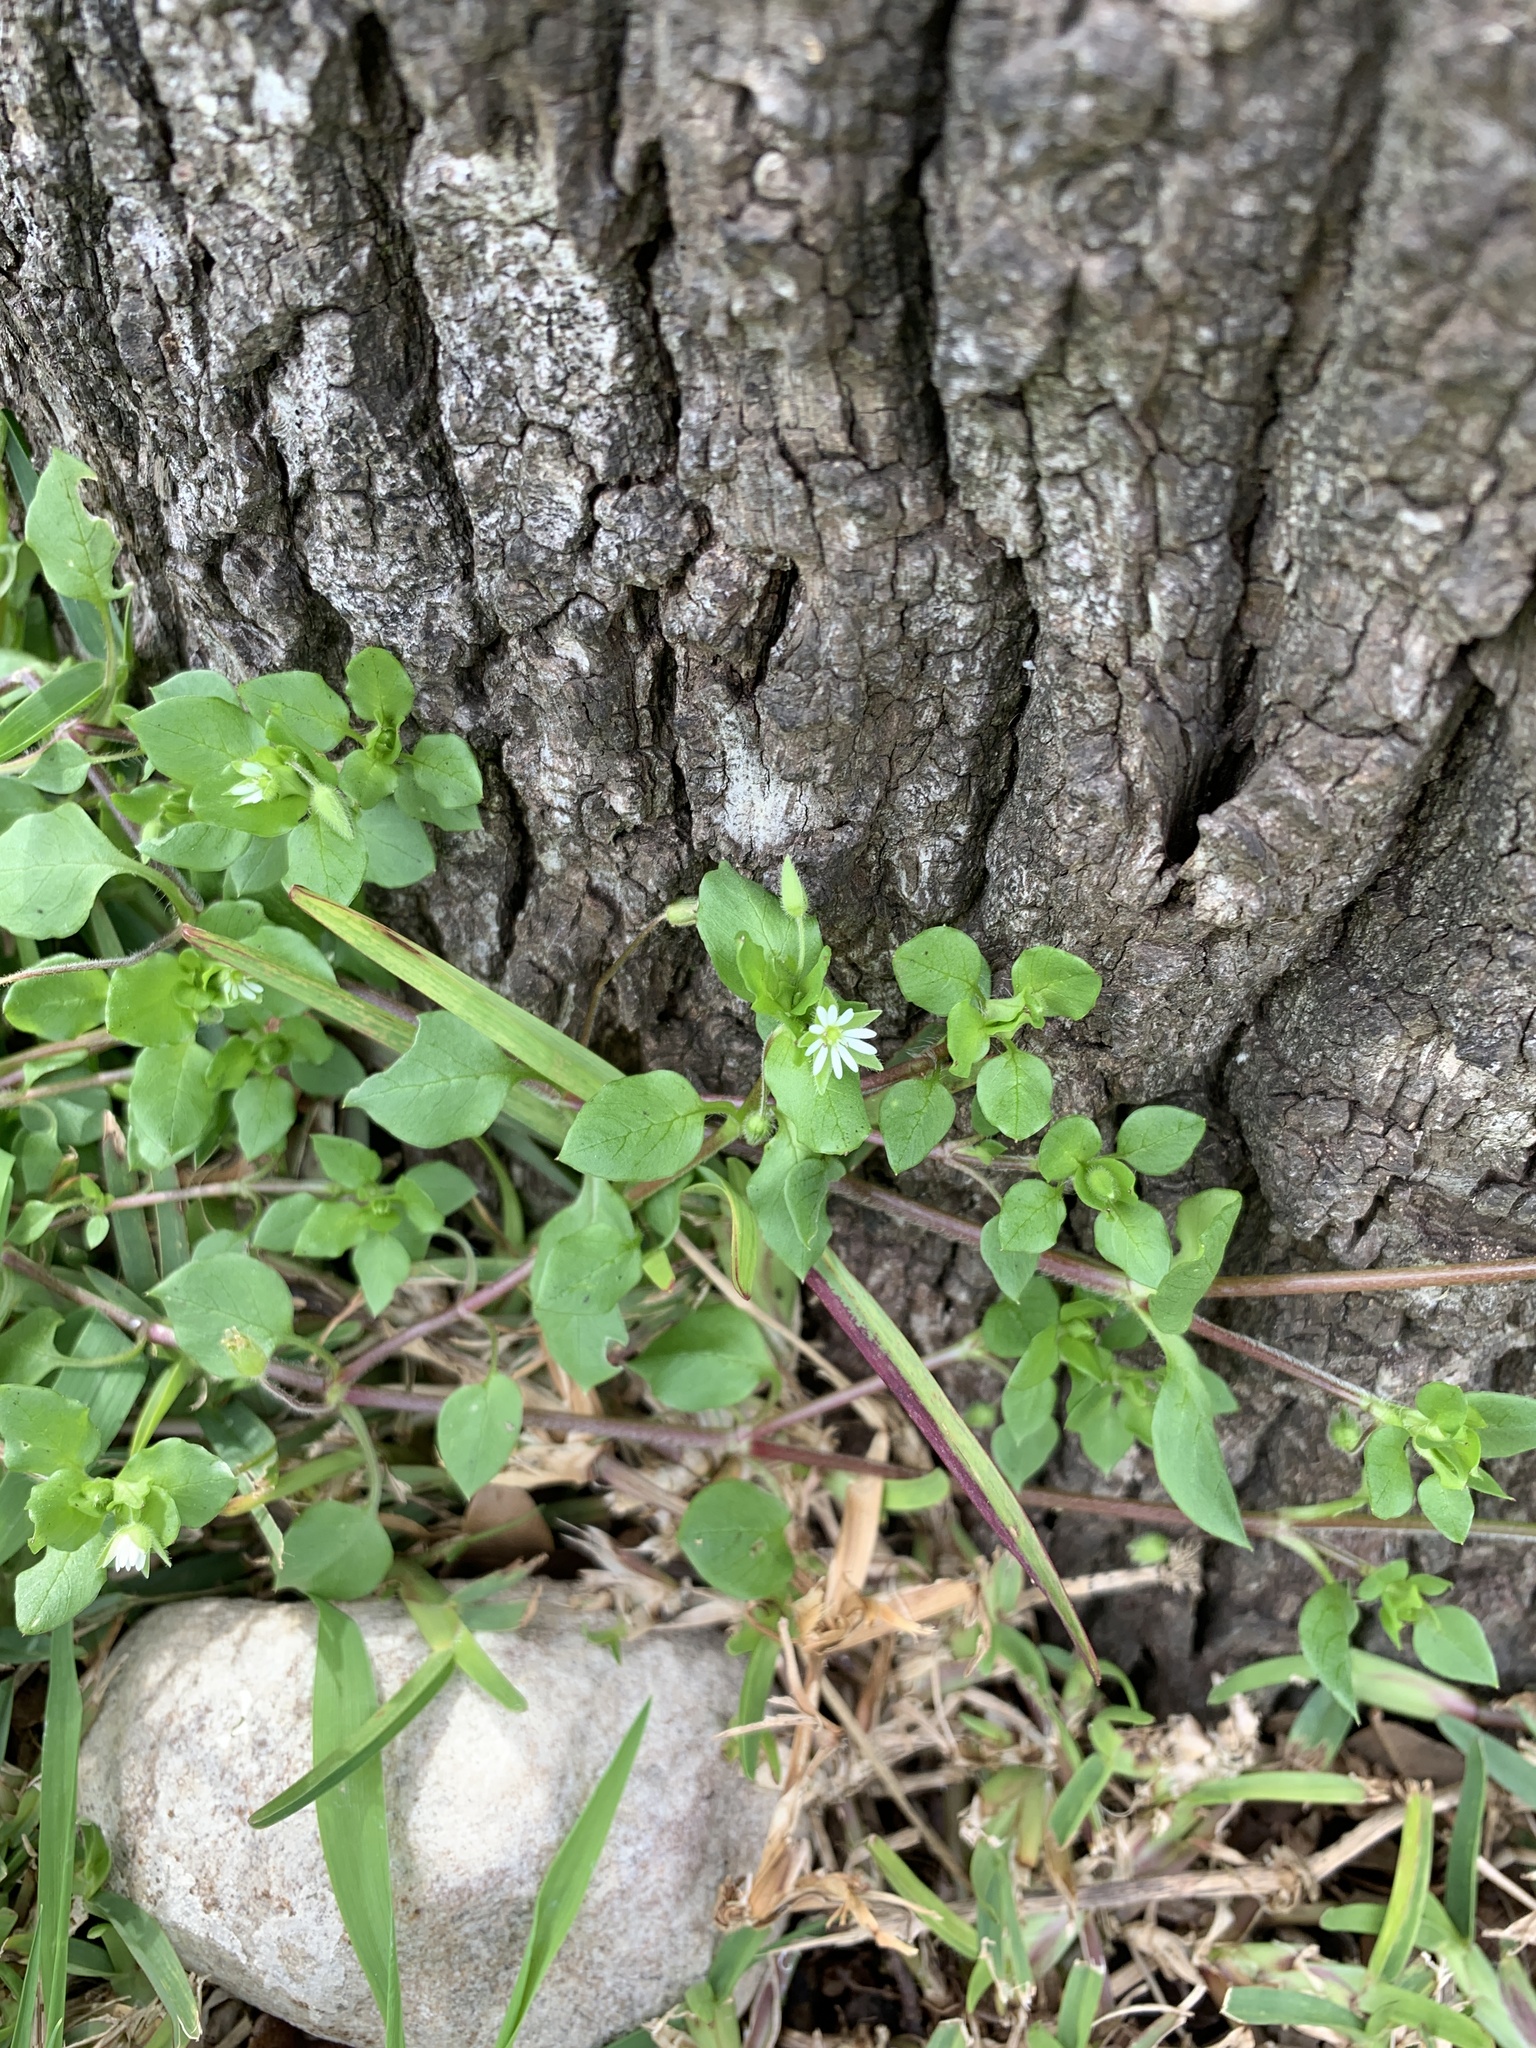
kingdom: Plantae
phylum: Tracheophyta
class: Magnoliopsida
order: Caryophyllales
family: Caryophyllaceae
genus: Stellaria
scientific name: Stellaria media
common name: Common chickweed
